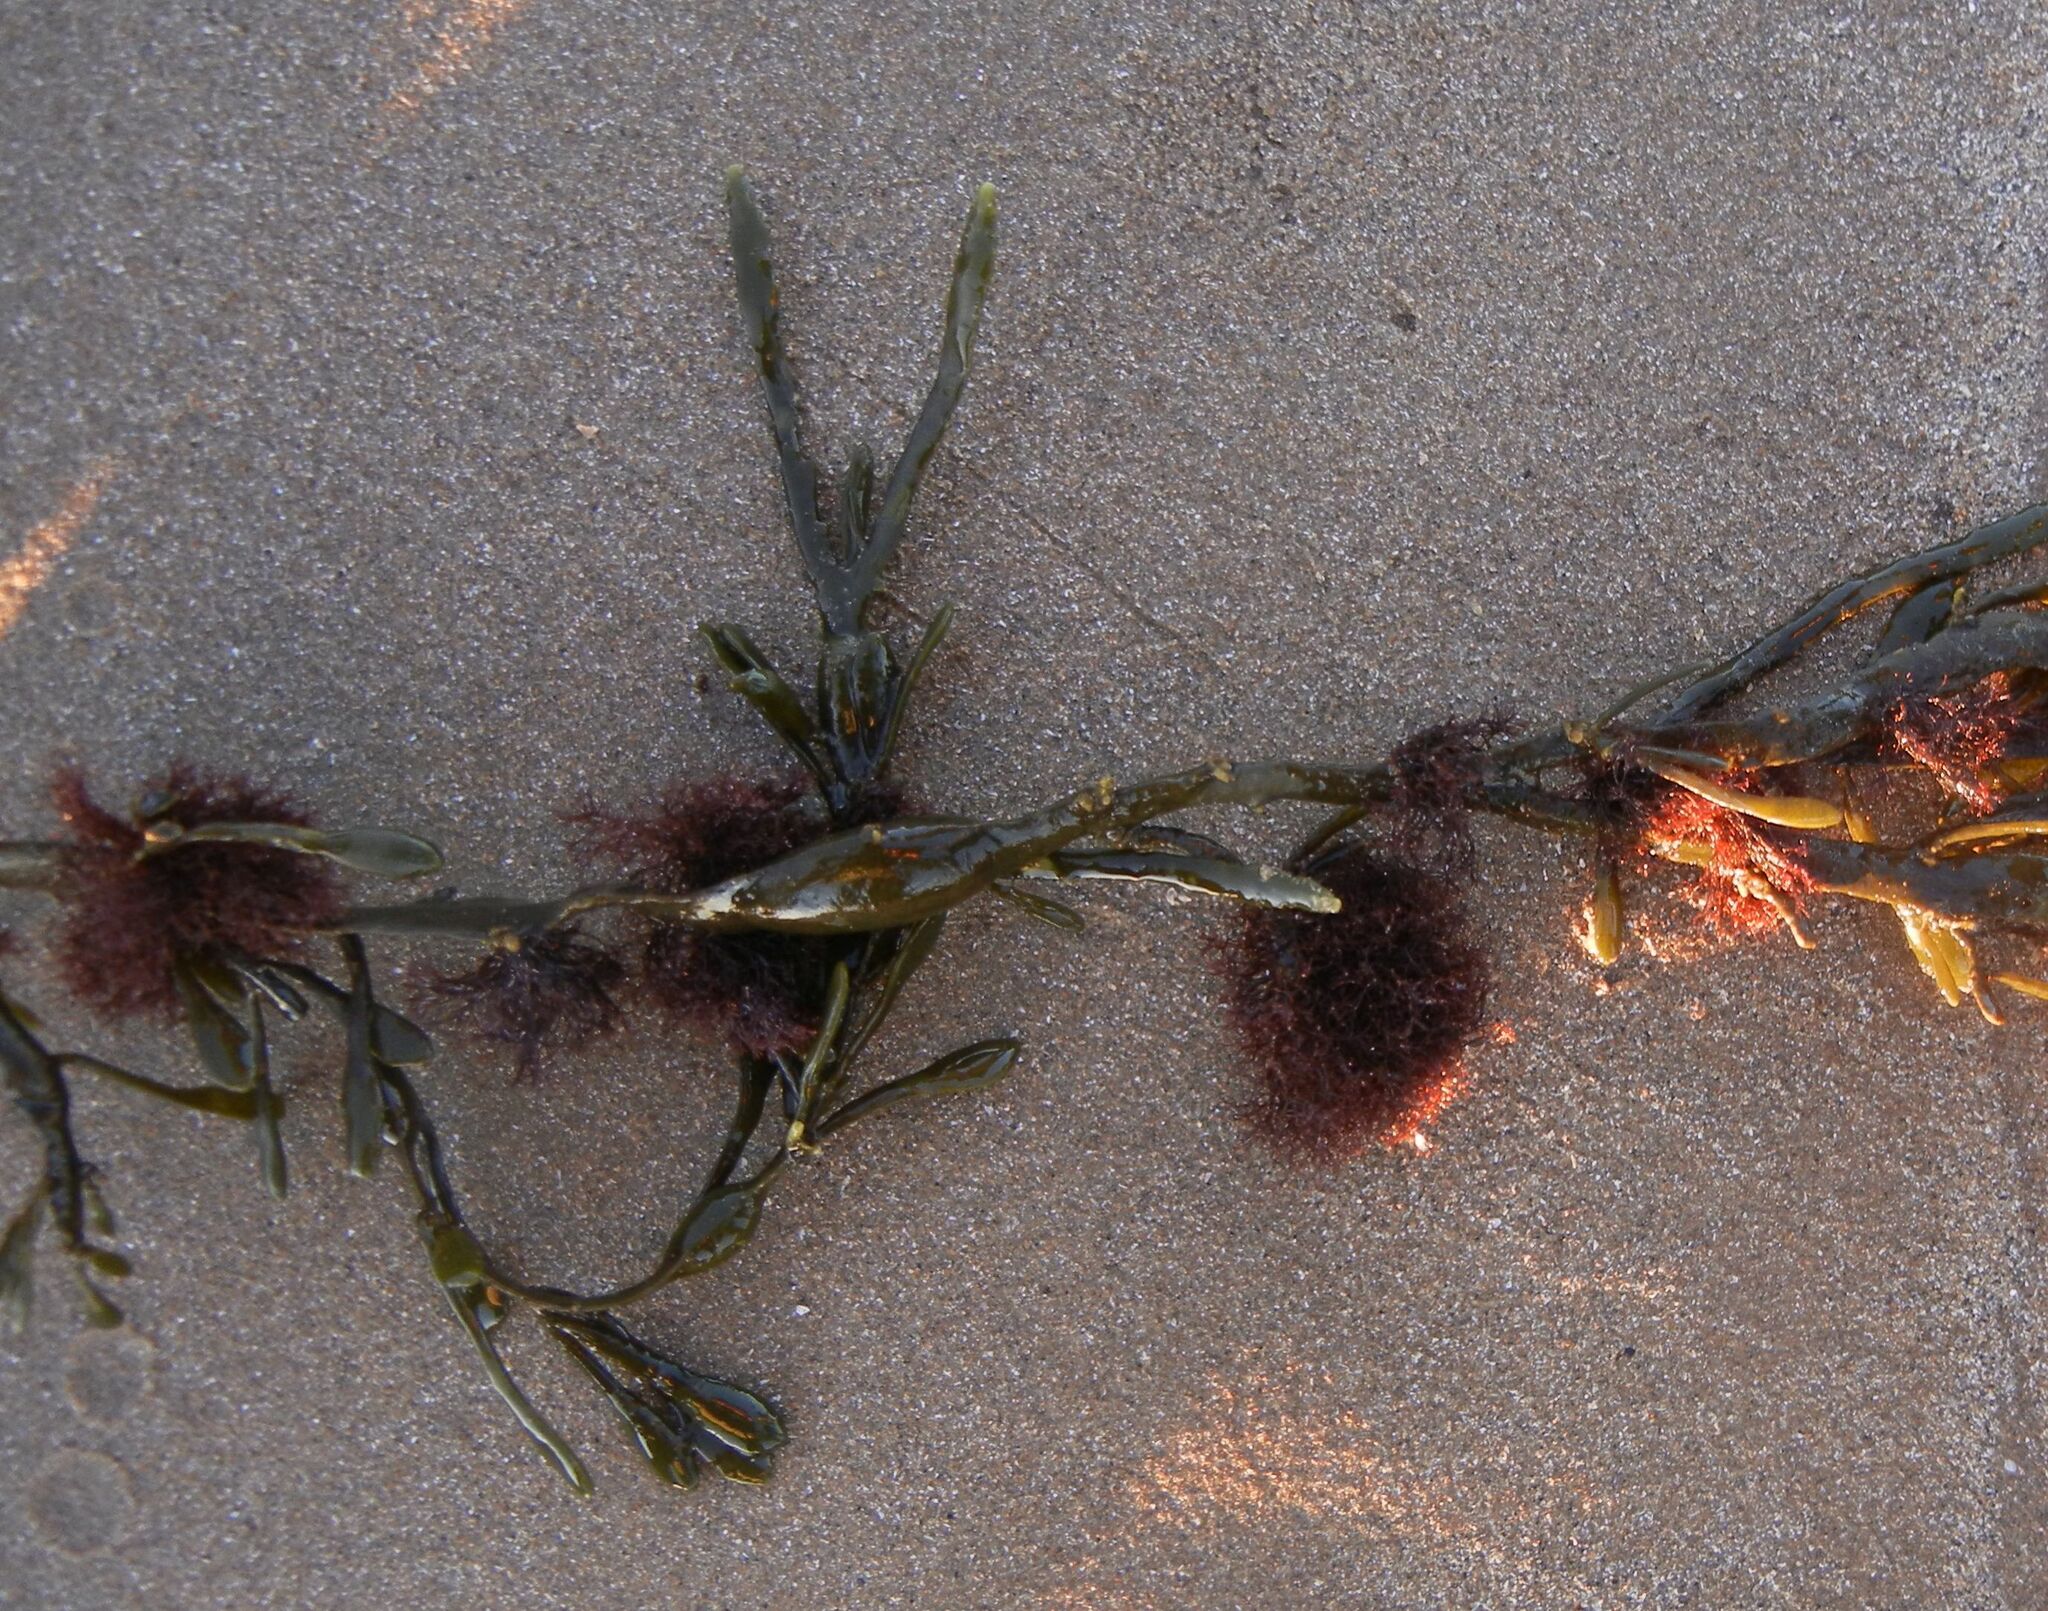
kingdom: Plantae
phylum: Rhodophyta
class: Florideophyceae
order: Ceramiales
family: Rhodomelaceae
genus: Vertebrata
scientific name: Vertebrata lanosa
